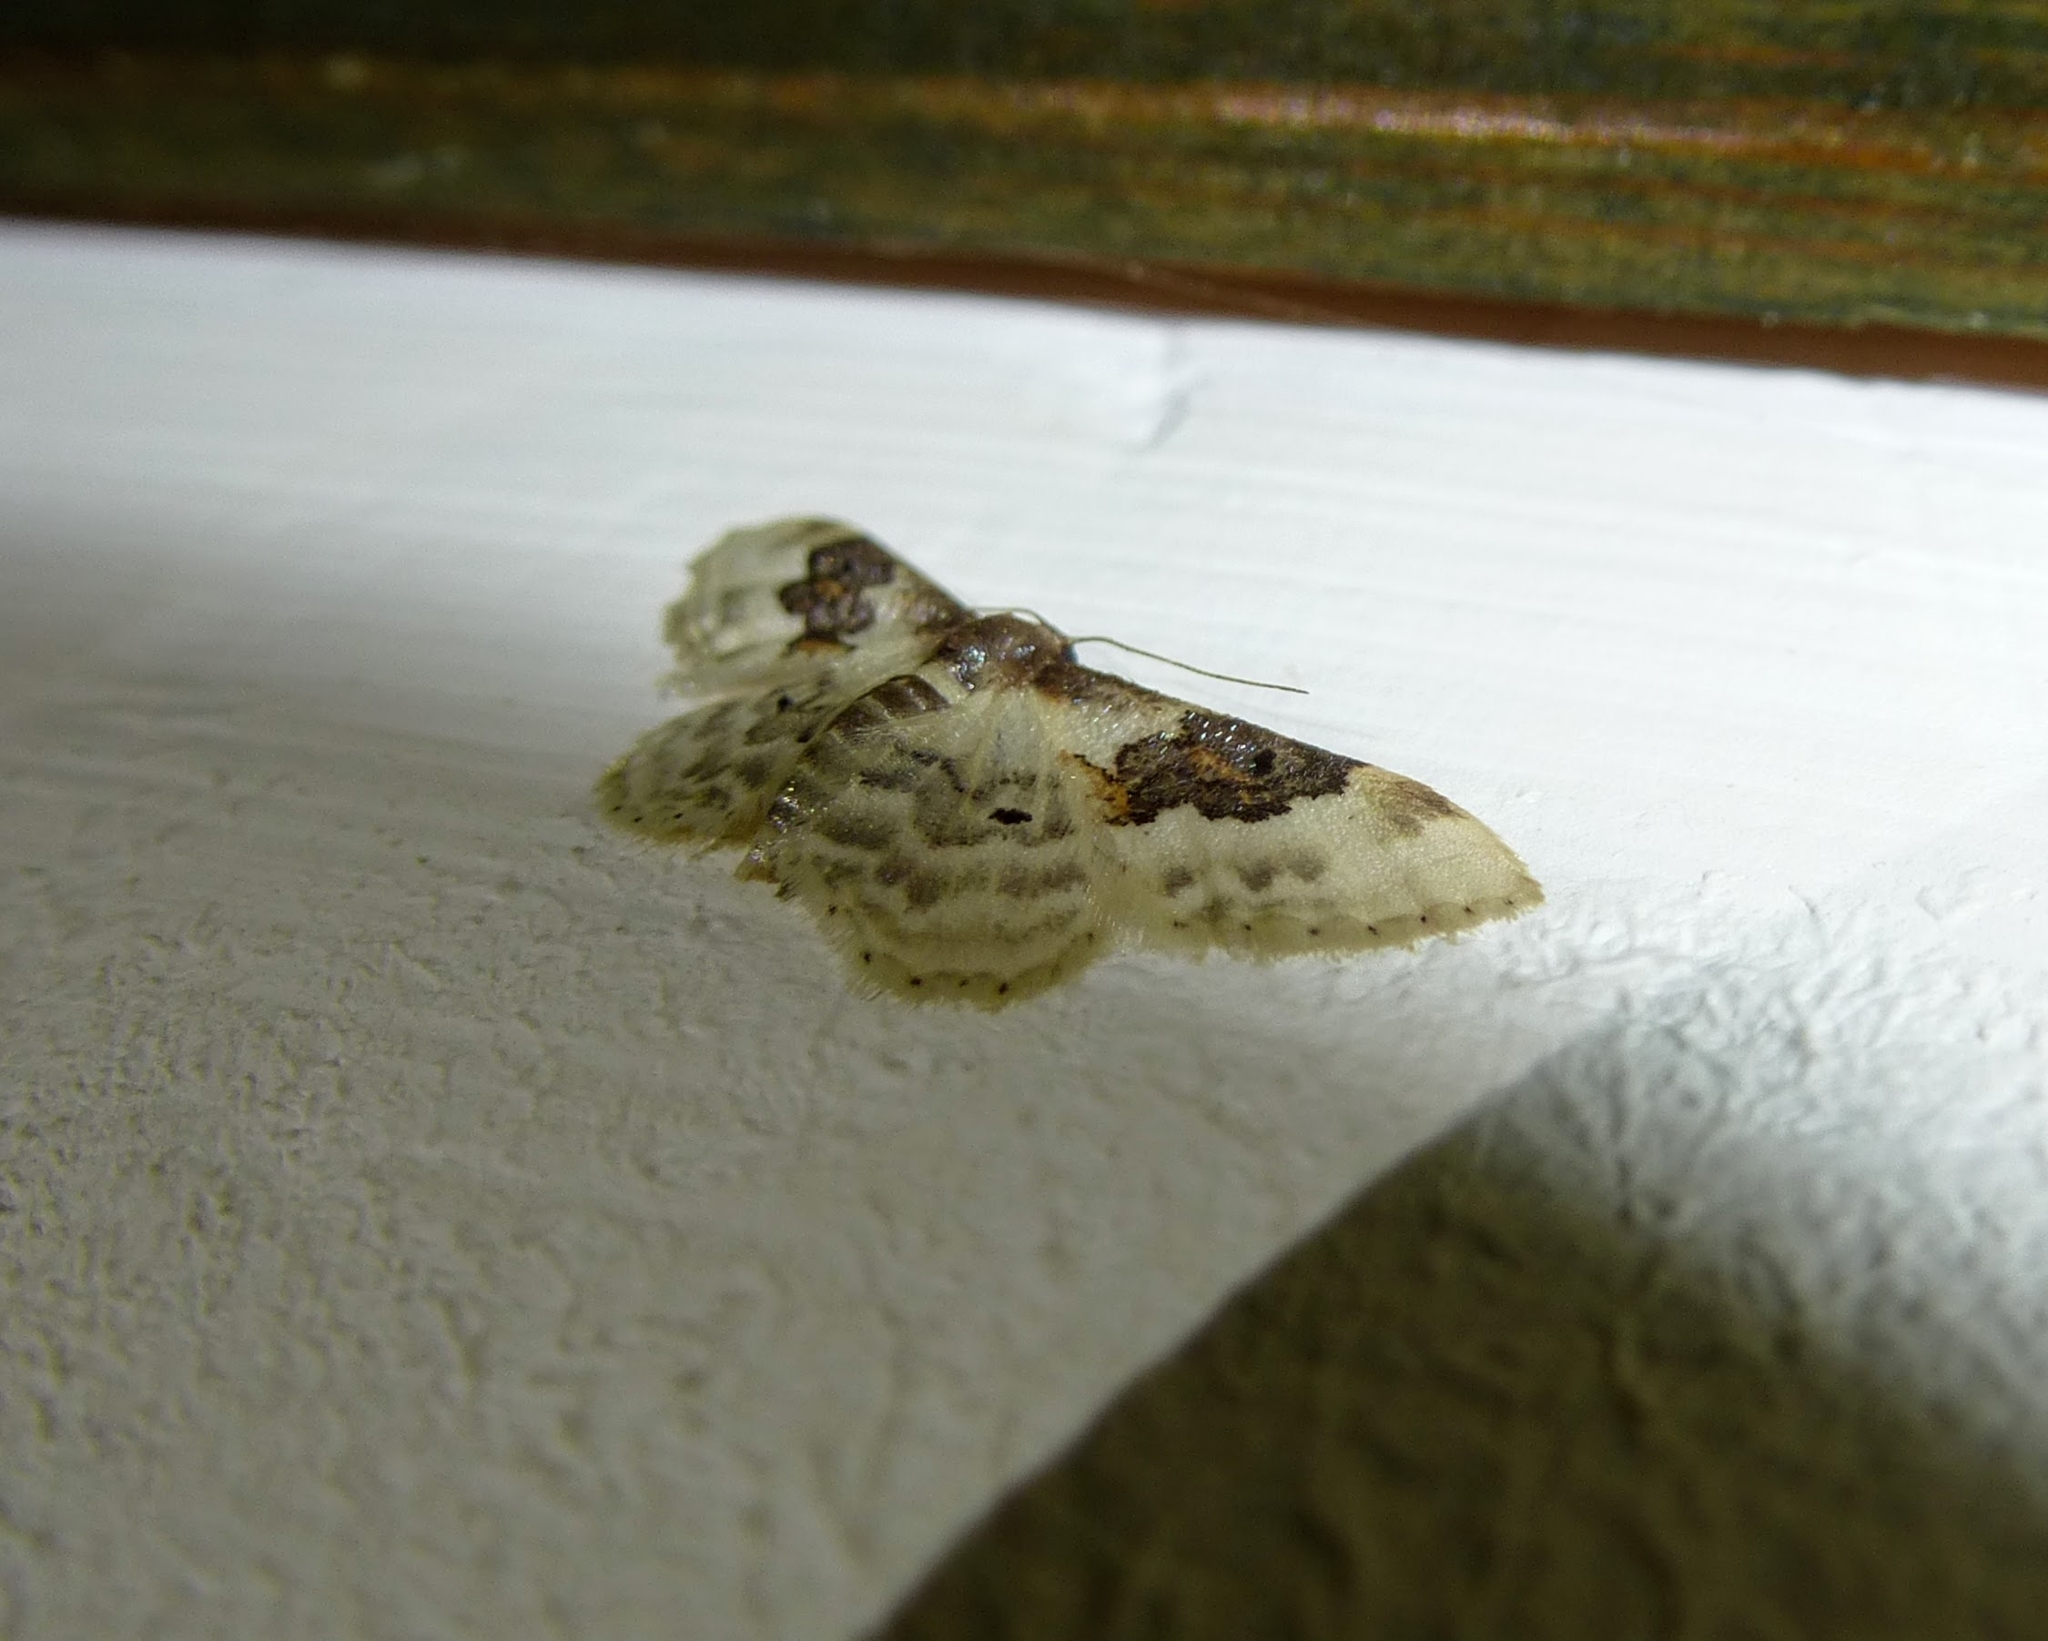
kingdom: Animalia
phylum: Arthropoda
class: Insecta
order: Lepidoptera
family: Geometridae
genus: Idaea
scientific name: Idaea rusticata
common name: Least carpet
